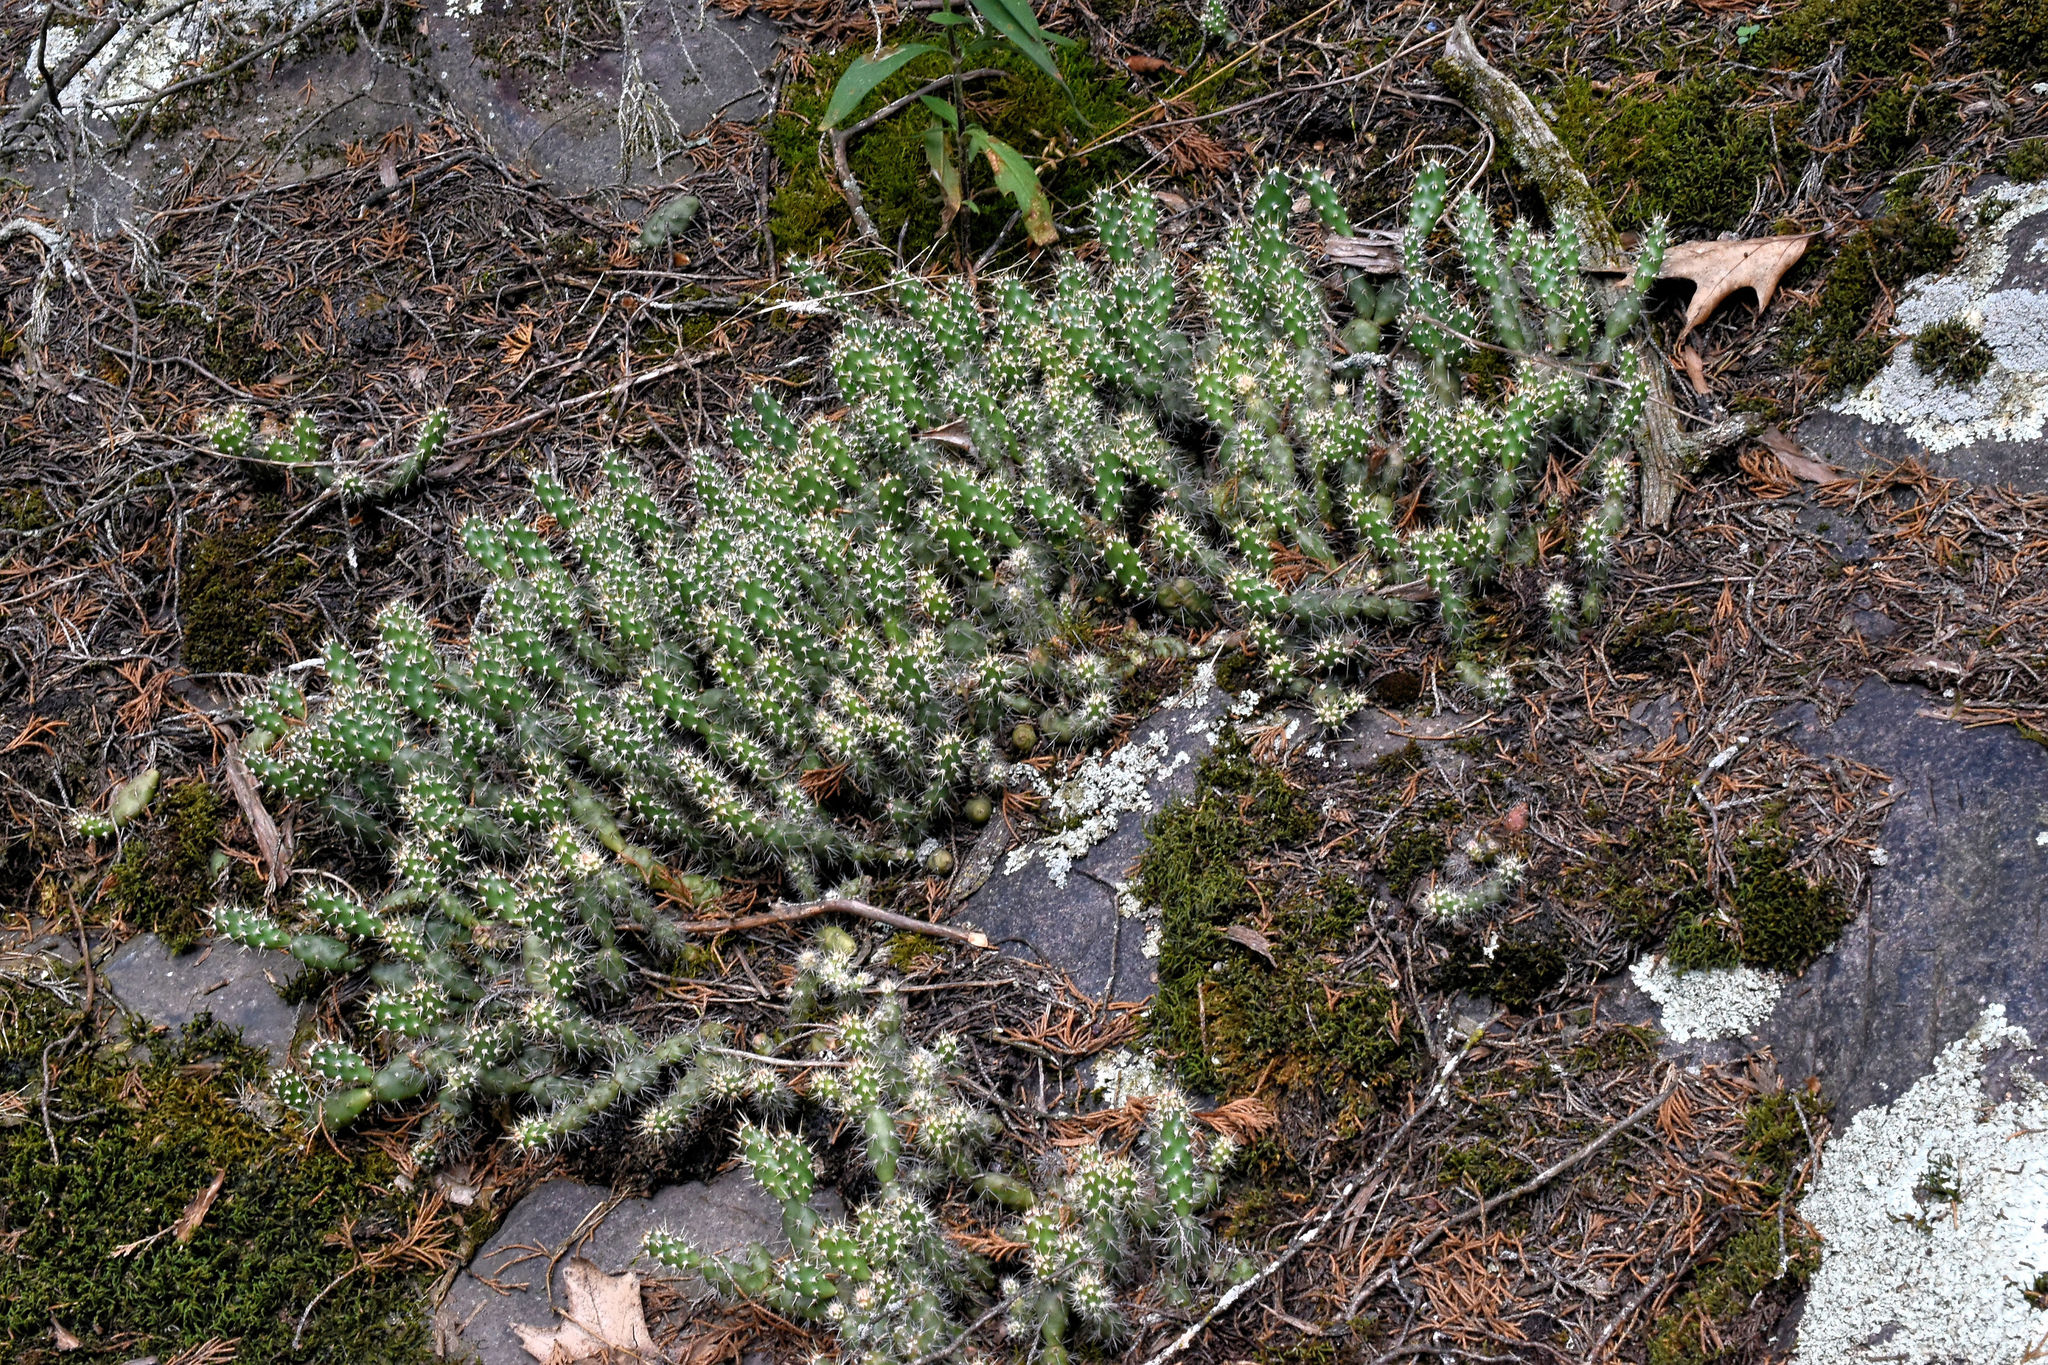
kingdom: Plantae
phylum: Tracheophyta
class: Magnoliopsida
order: Caryophyllales
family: Cactaceae
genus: Opuntia
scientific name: Opuntia fragilis
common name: Brittle cactus
